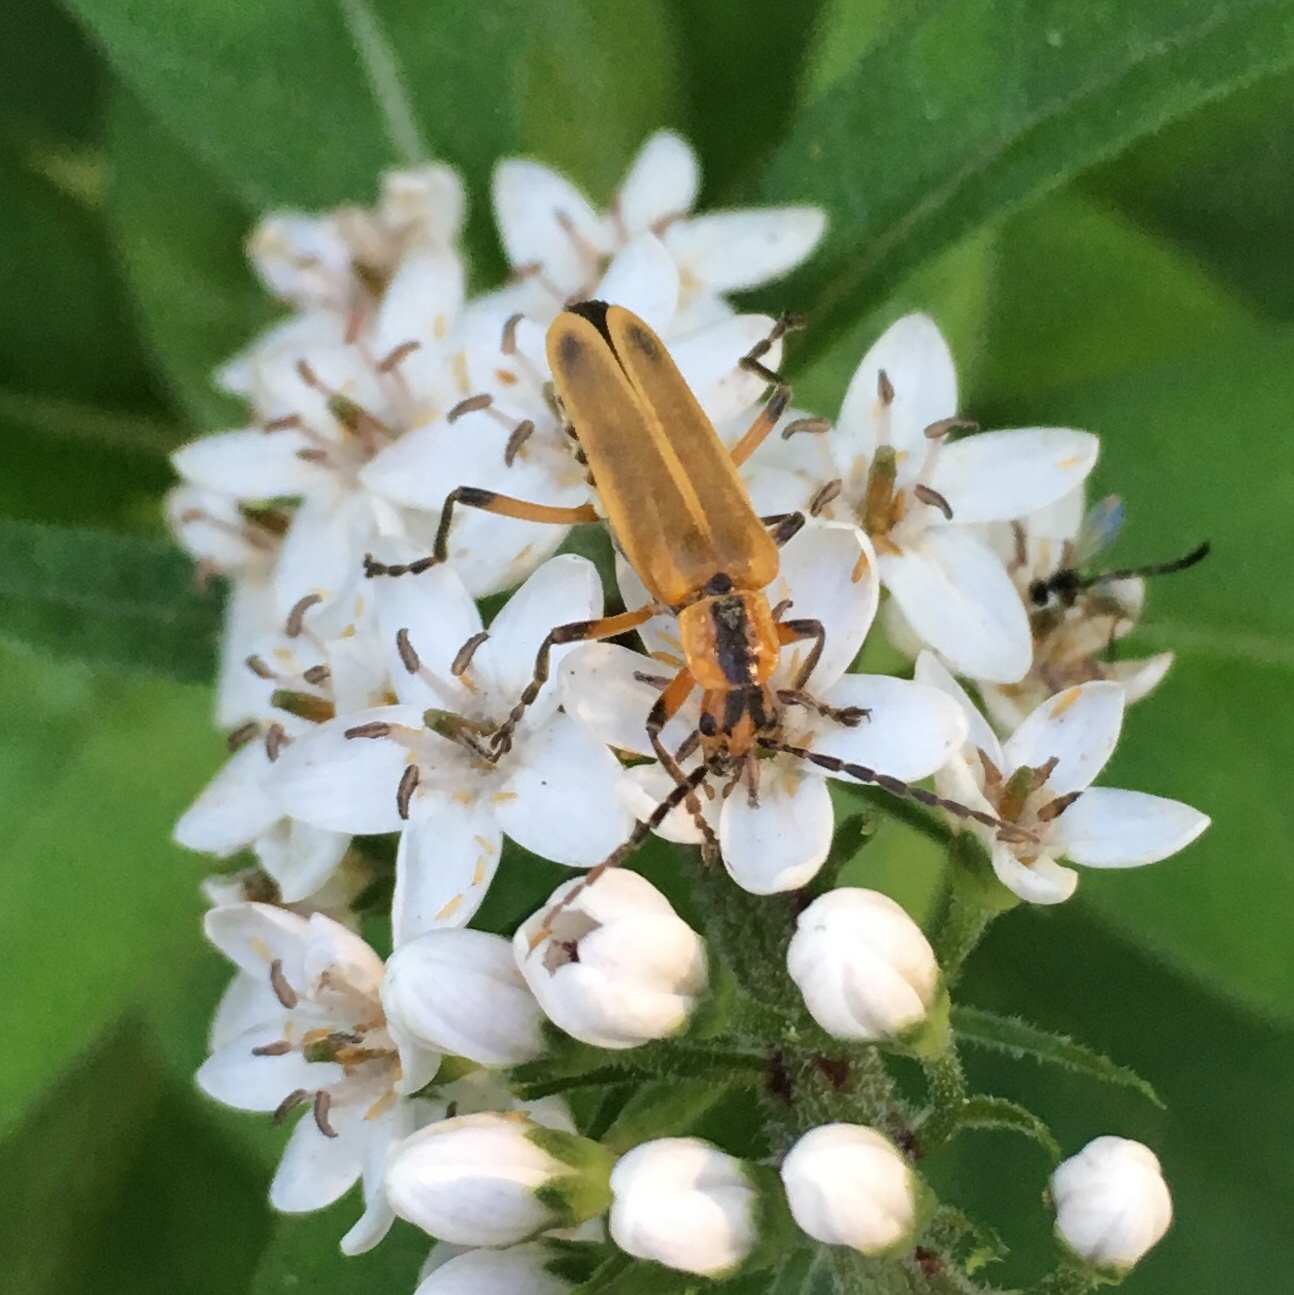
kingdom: Animalia
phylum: Arthropoda
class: Insecta
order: Coleoptera
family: Cantharidae
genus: Chauliognathus
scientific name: Chauliognathus marginatus
